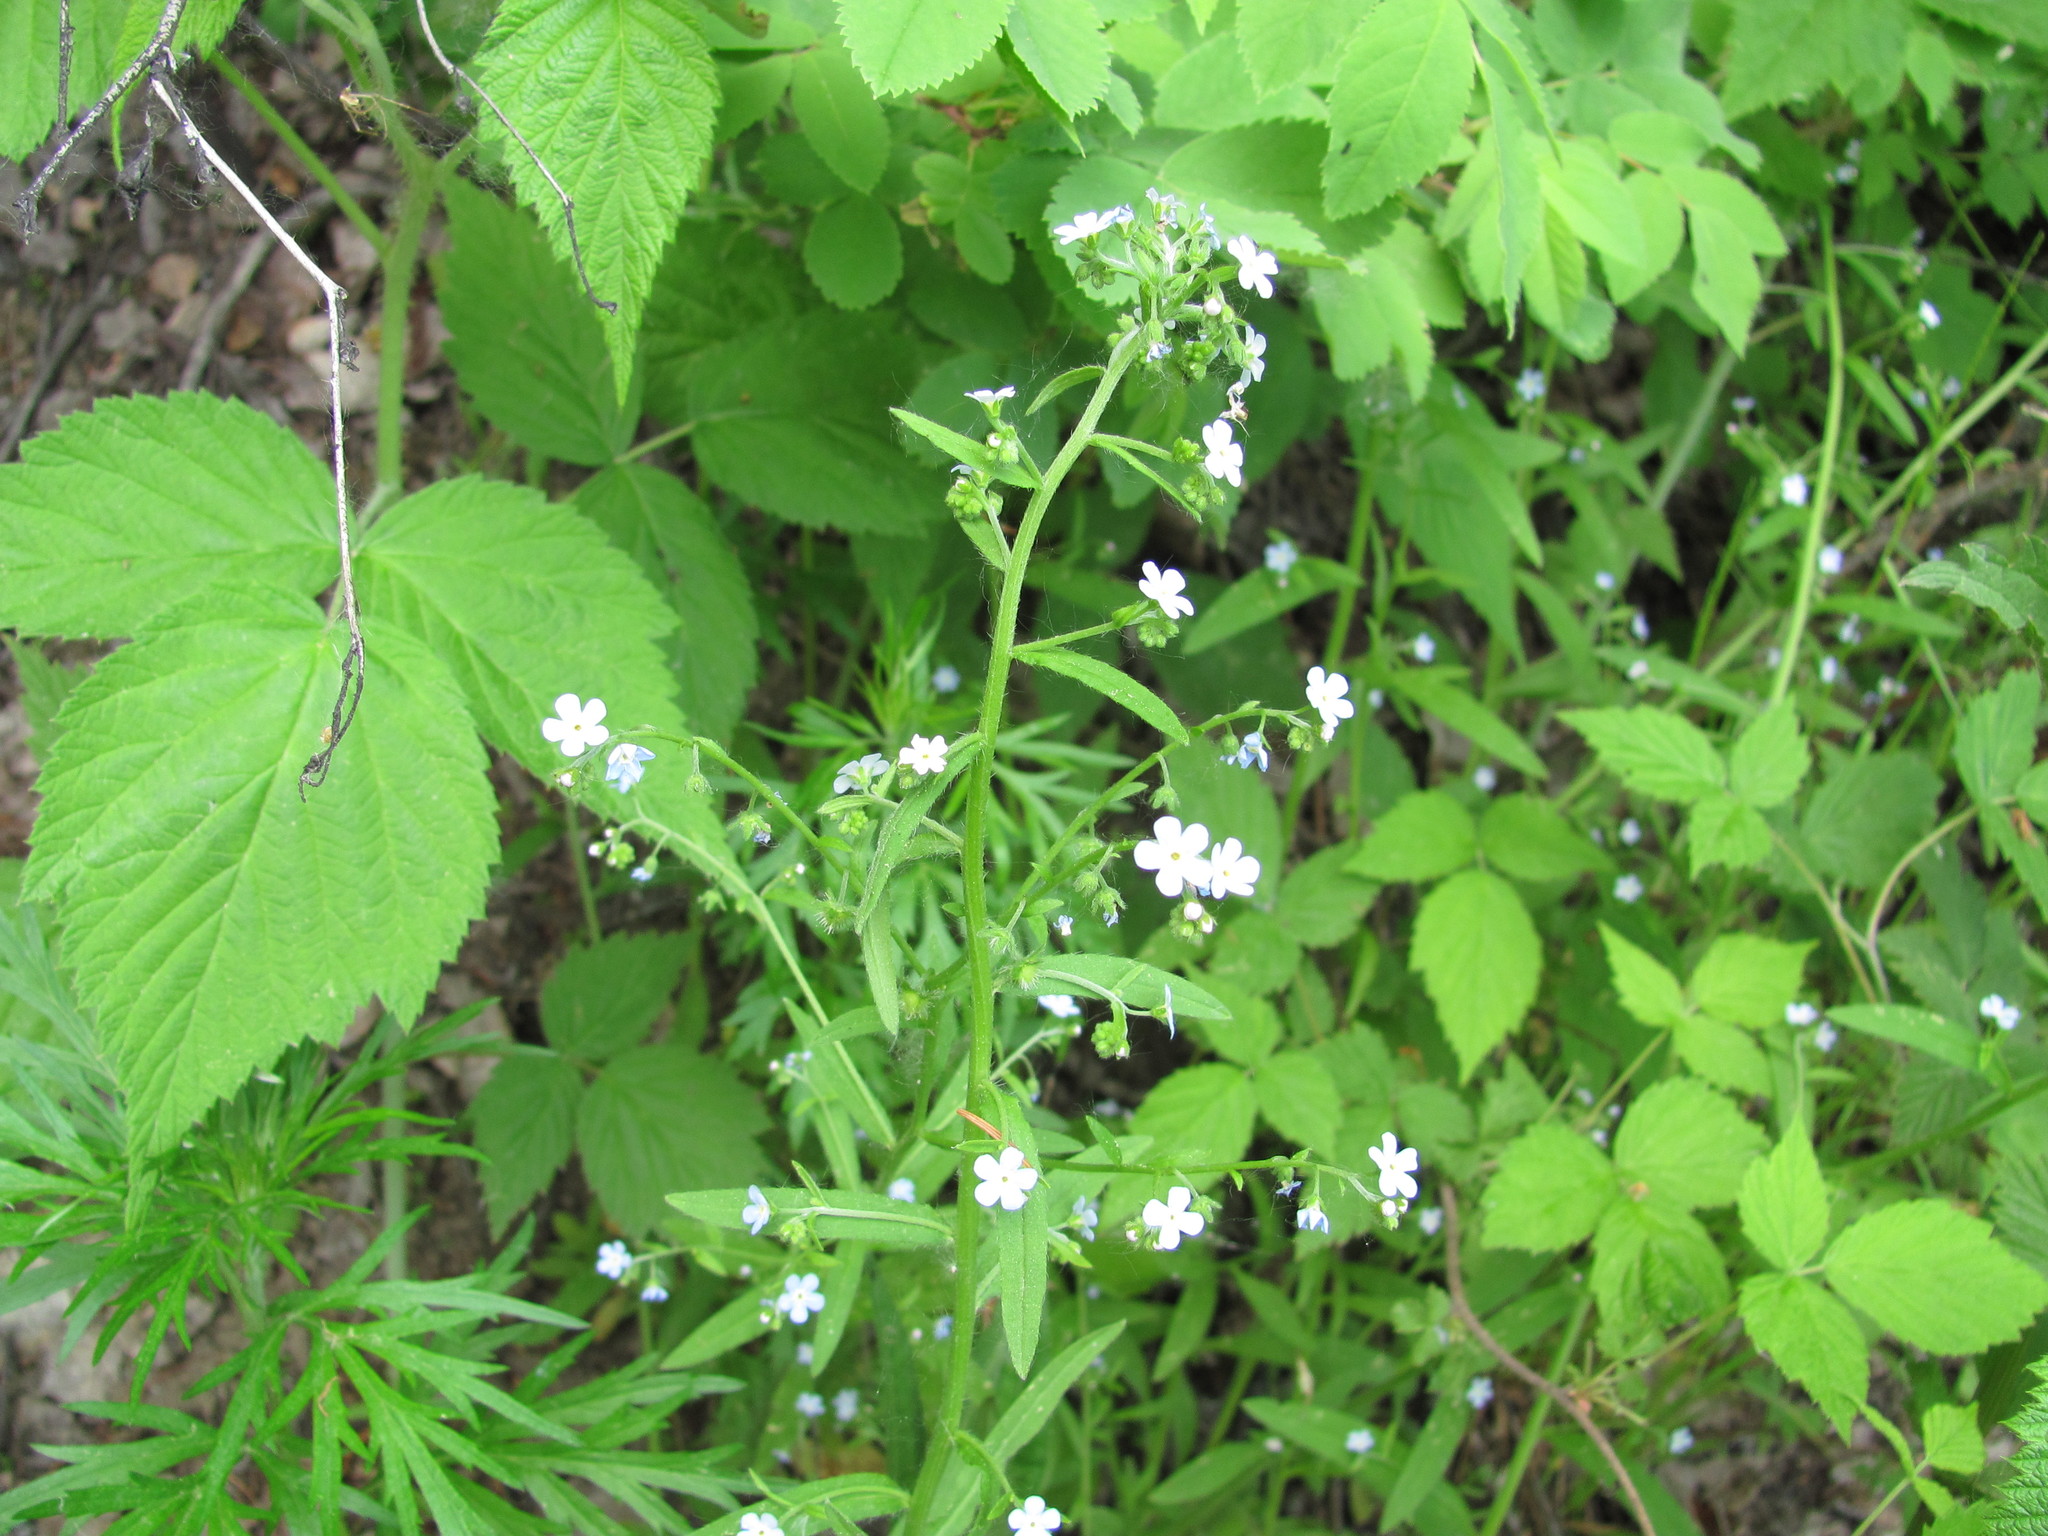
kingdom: Plantae
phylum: Tracheophyta
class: Magnoliopsida
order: Boraginales
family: Boraginaceae
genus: Hackelia
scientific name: Hackelia deflexa
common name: Nodding stickseed
